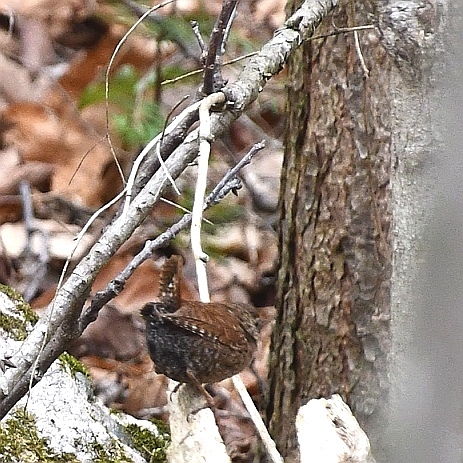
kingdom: Animalia
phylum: Chordata
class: Aves
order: Passeriformes
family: Troglodytidae
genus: Troglodytes
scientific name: Troglodytes hiemalis
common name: Winter wren
